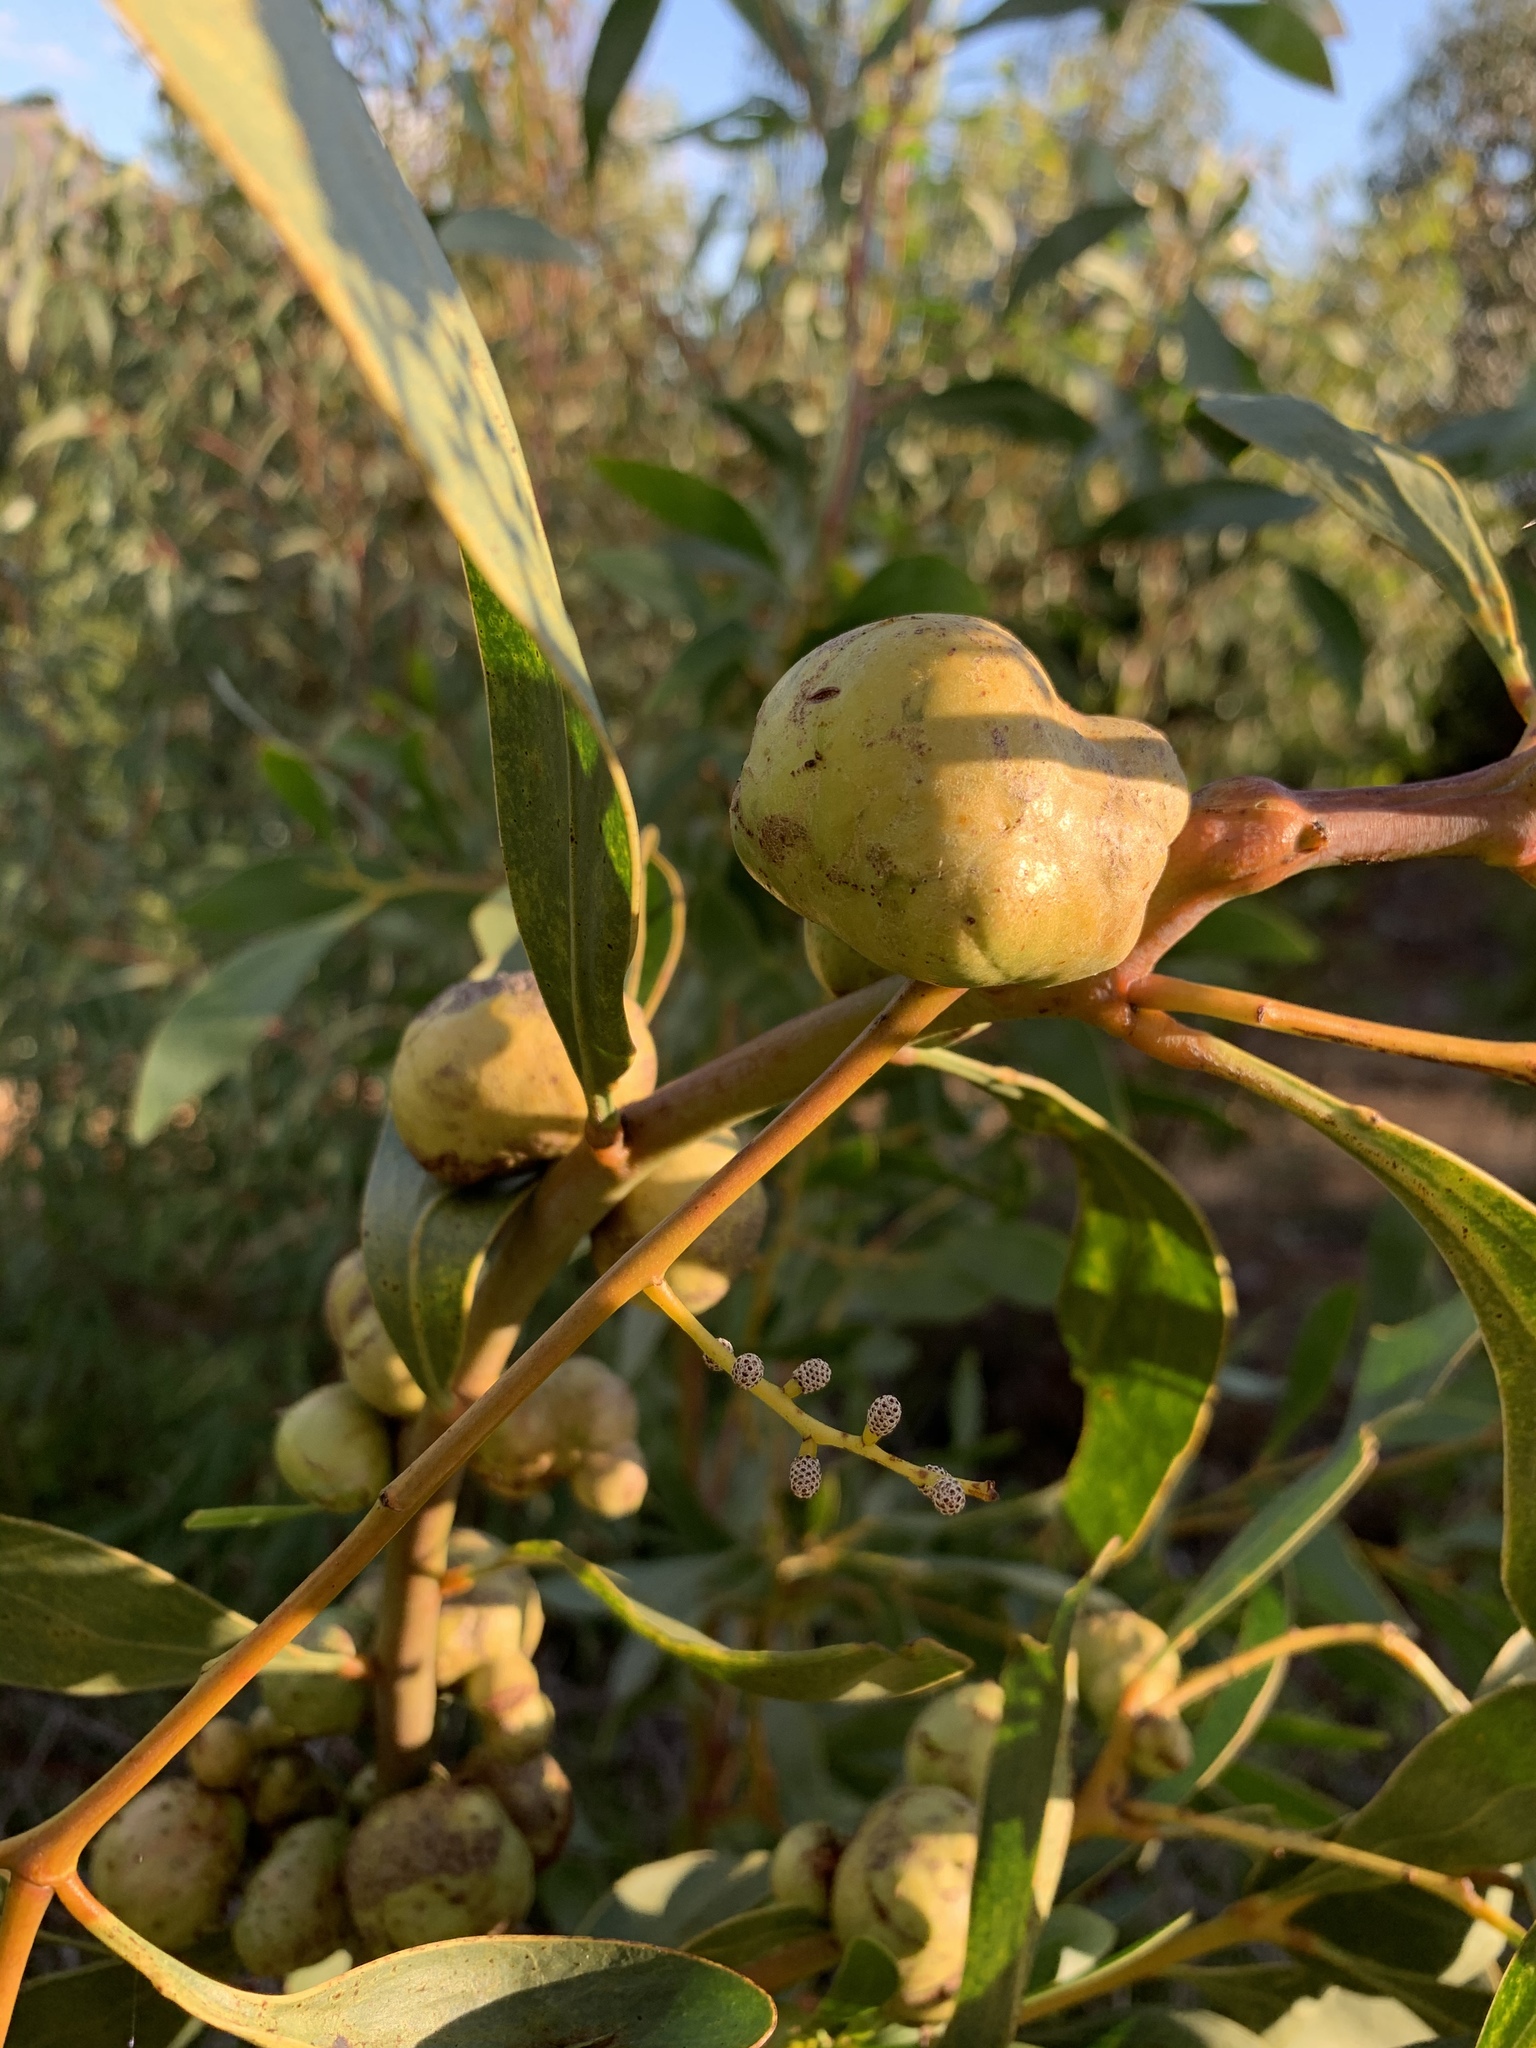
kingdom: Plantae
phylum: Tracheophyta
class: Magnoliopsida
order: Fabales
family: Fabaceae
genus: Acacia
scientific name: Acacia pycnantha
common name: Golden wattle
